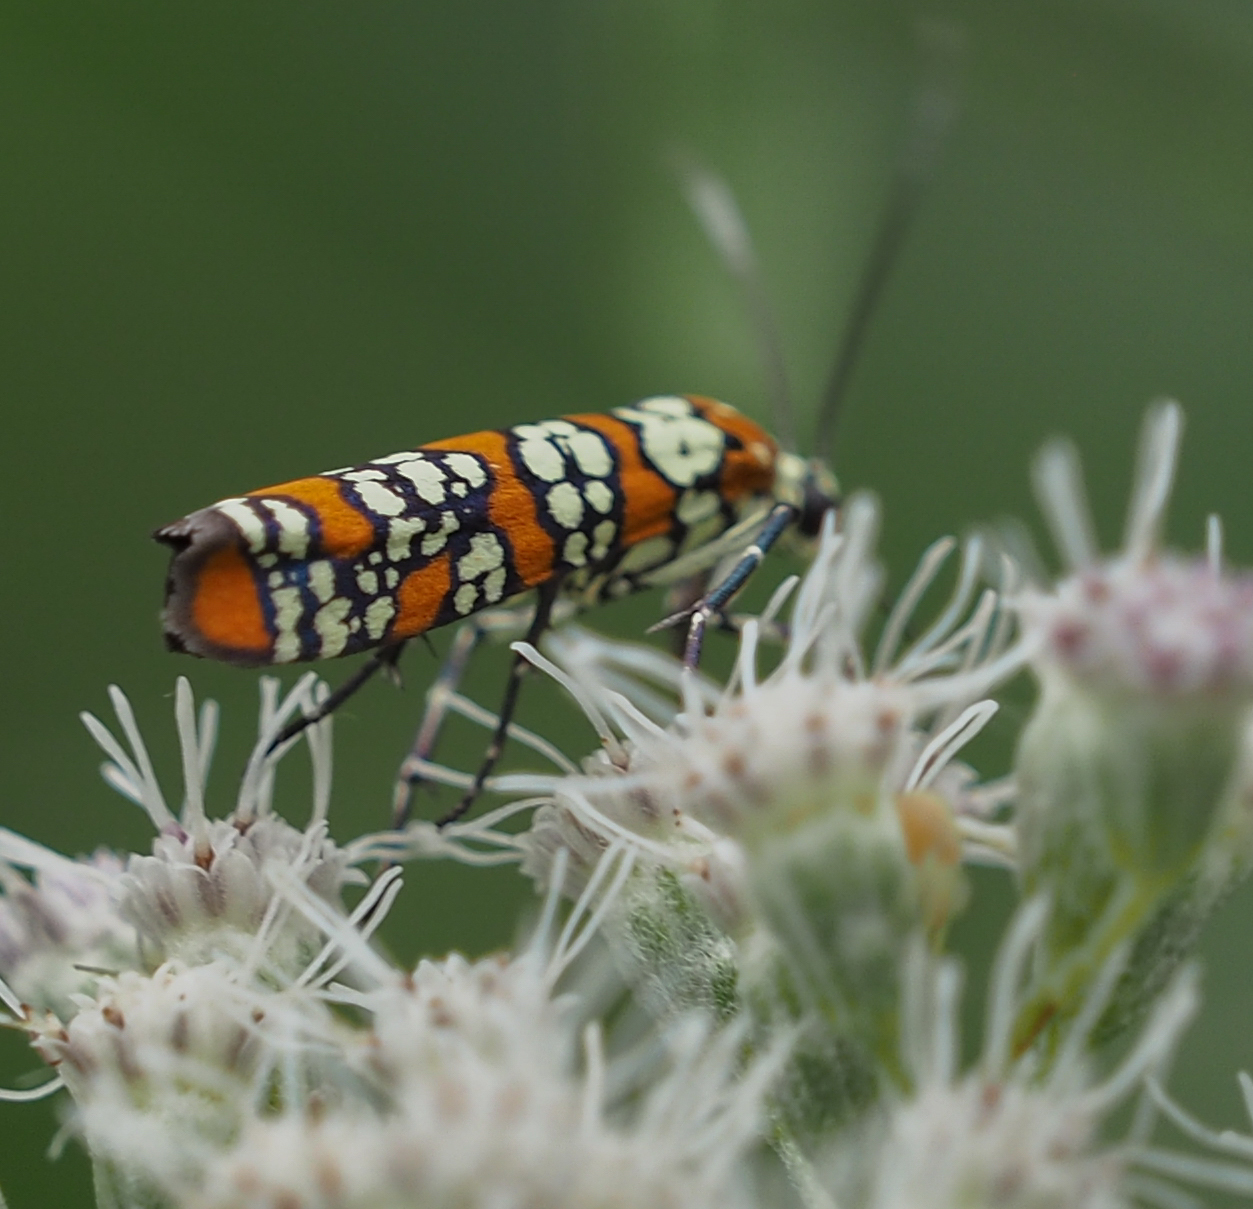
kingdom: Animalia
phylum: Arthropoda
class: Insecta
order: Lepidoptera
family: Attevidae
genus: Atteva
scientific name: Atteva punctella
